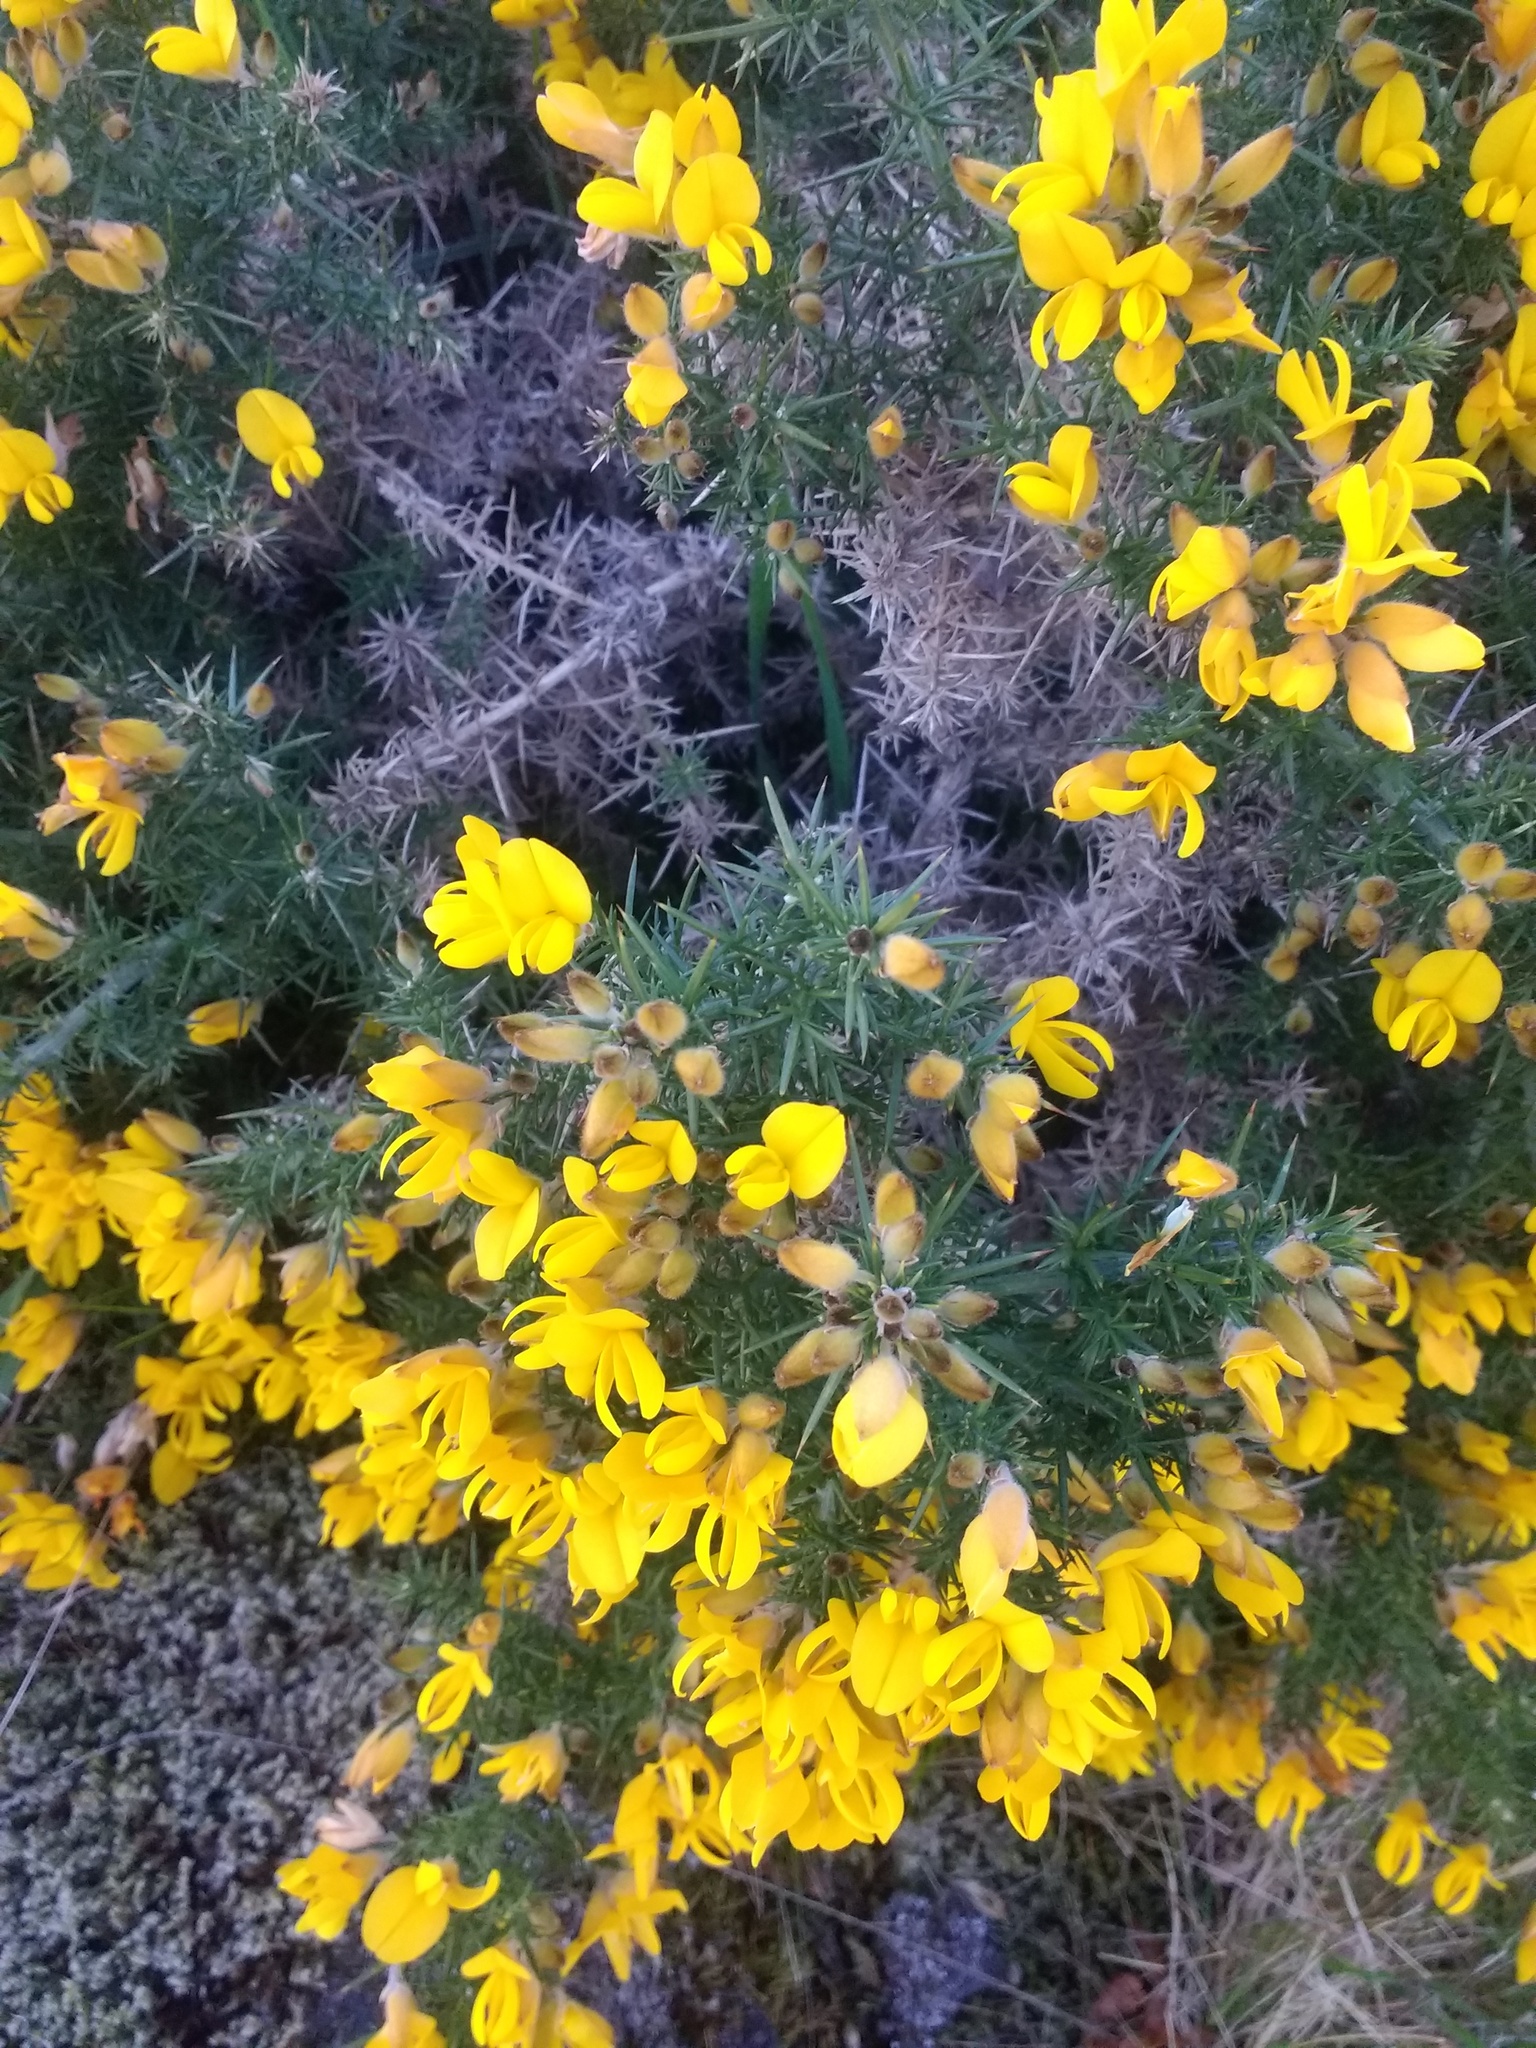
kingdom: Plantae
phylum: Tracheophyta
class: Magnoliopsida
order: Fabales
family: Fabaceae
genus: Ulex
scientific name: Ulex europaeus
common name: Common gorse
